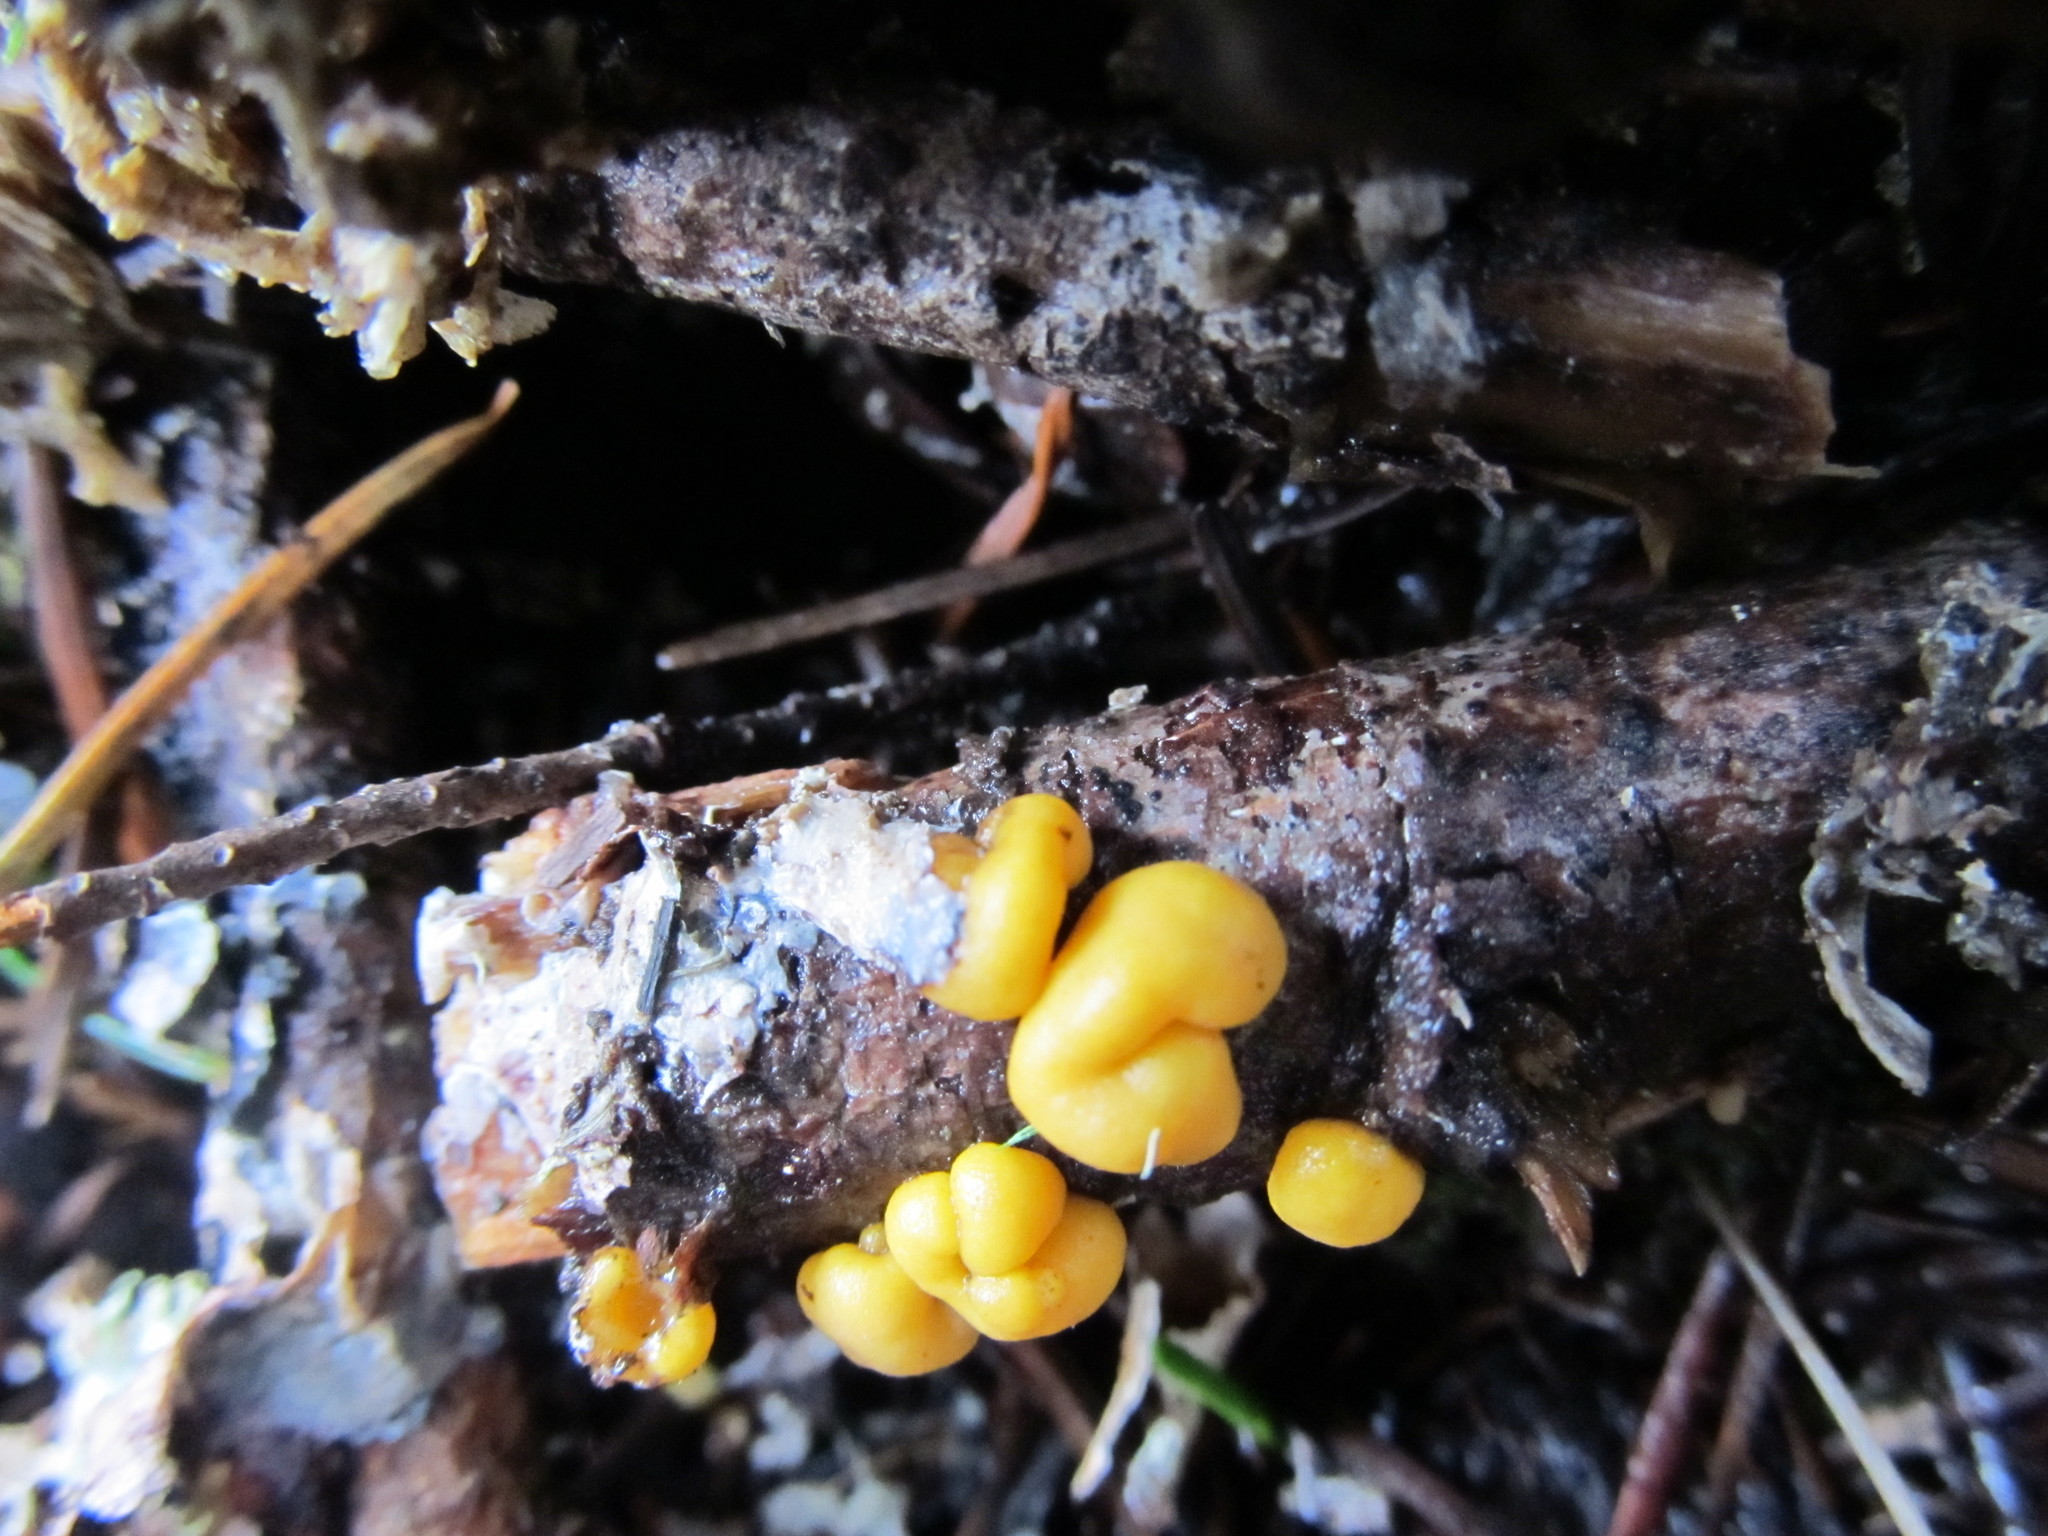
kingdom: Fungi
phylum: Mucoromycota
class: Endogonomycetes
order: Endogonales
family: Endogonaceae
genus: Endogone
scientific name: Endogone pisiformis
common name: Hairy pea truffle
